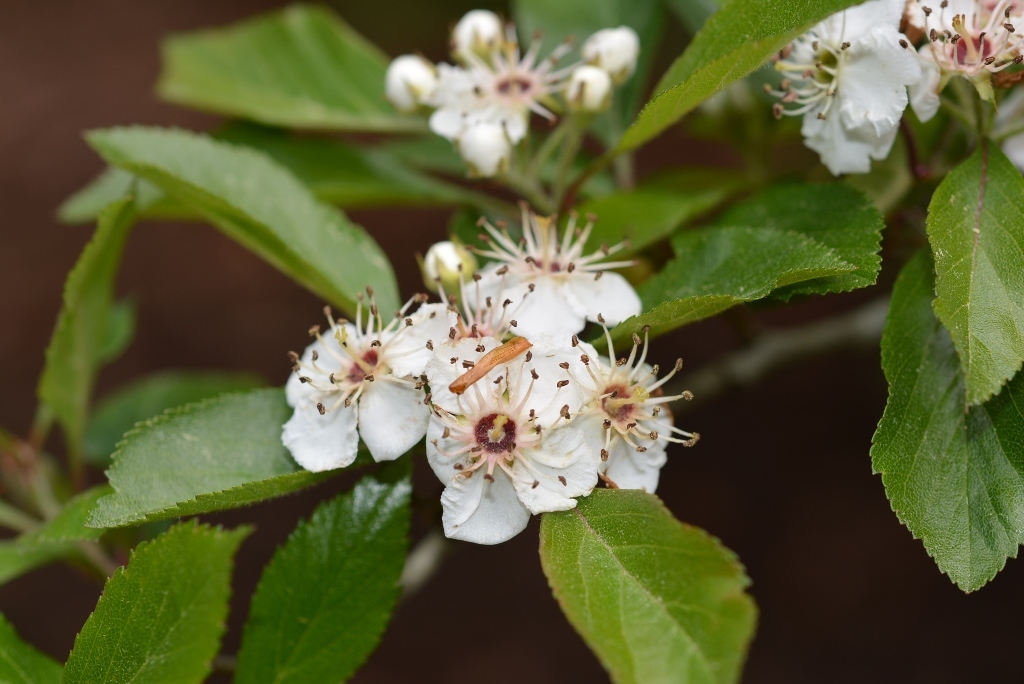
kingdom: Plantae
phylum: Tracheophyta
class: Magnoliopsida
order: Rosales
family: Rosaceae
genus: Crataegus
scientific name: Crataegus mexicana
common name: Mexican hawthorn
